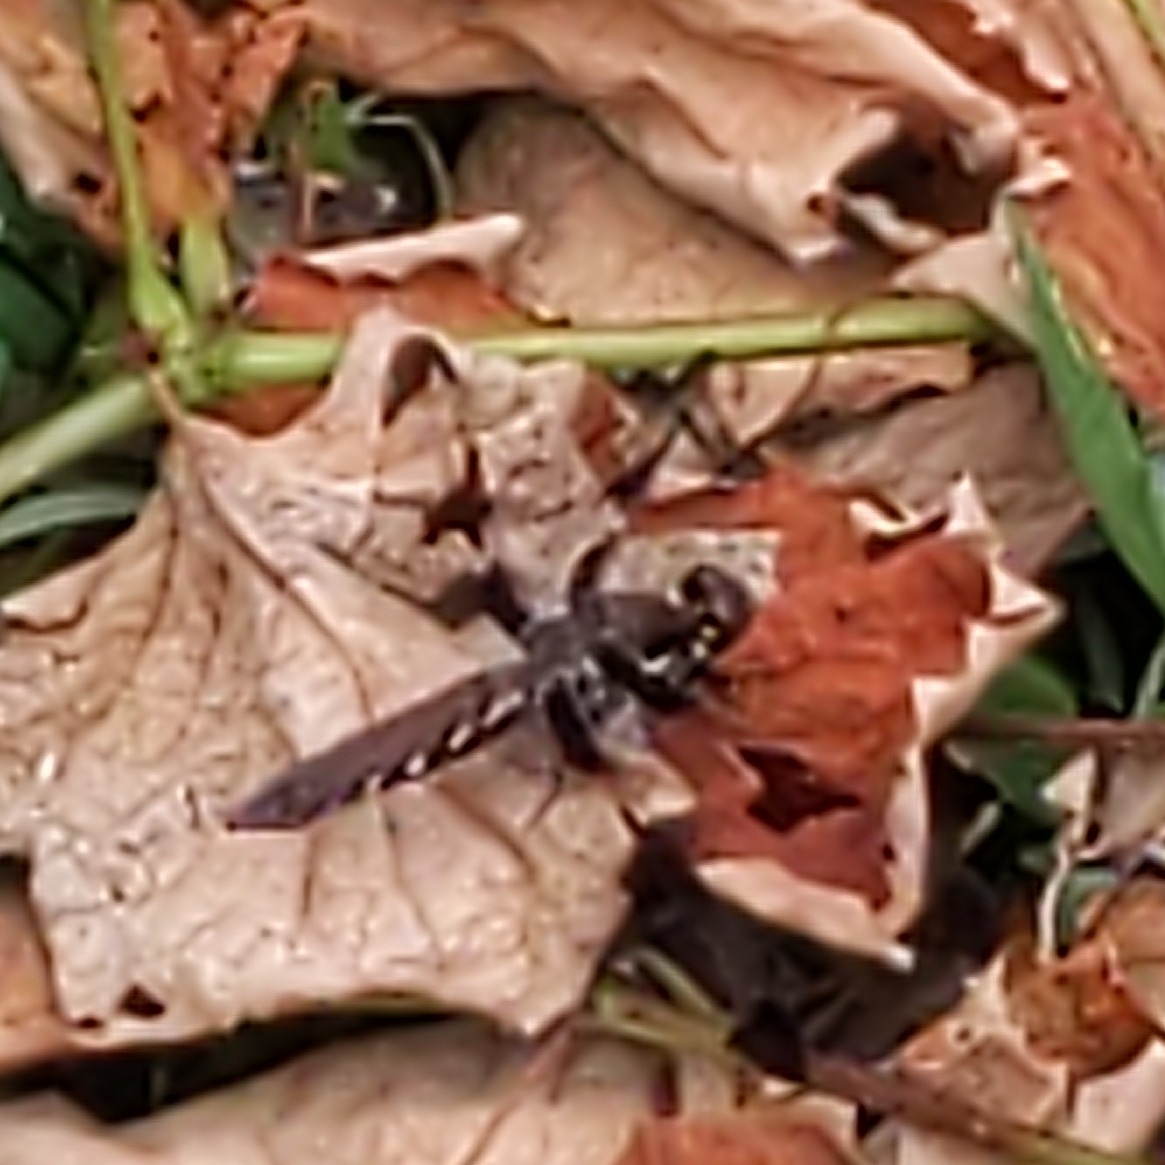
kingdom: Animalia
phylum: Arthropoda
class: Insecta
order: Odonata
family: Libellulidae
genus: Plathemis
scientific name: Plathemis lydia
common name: Common whitetail
